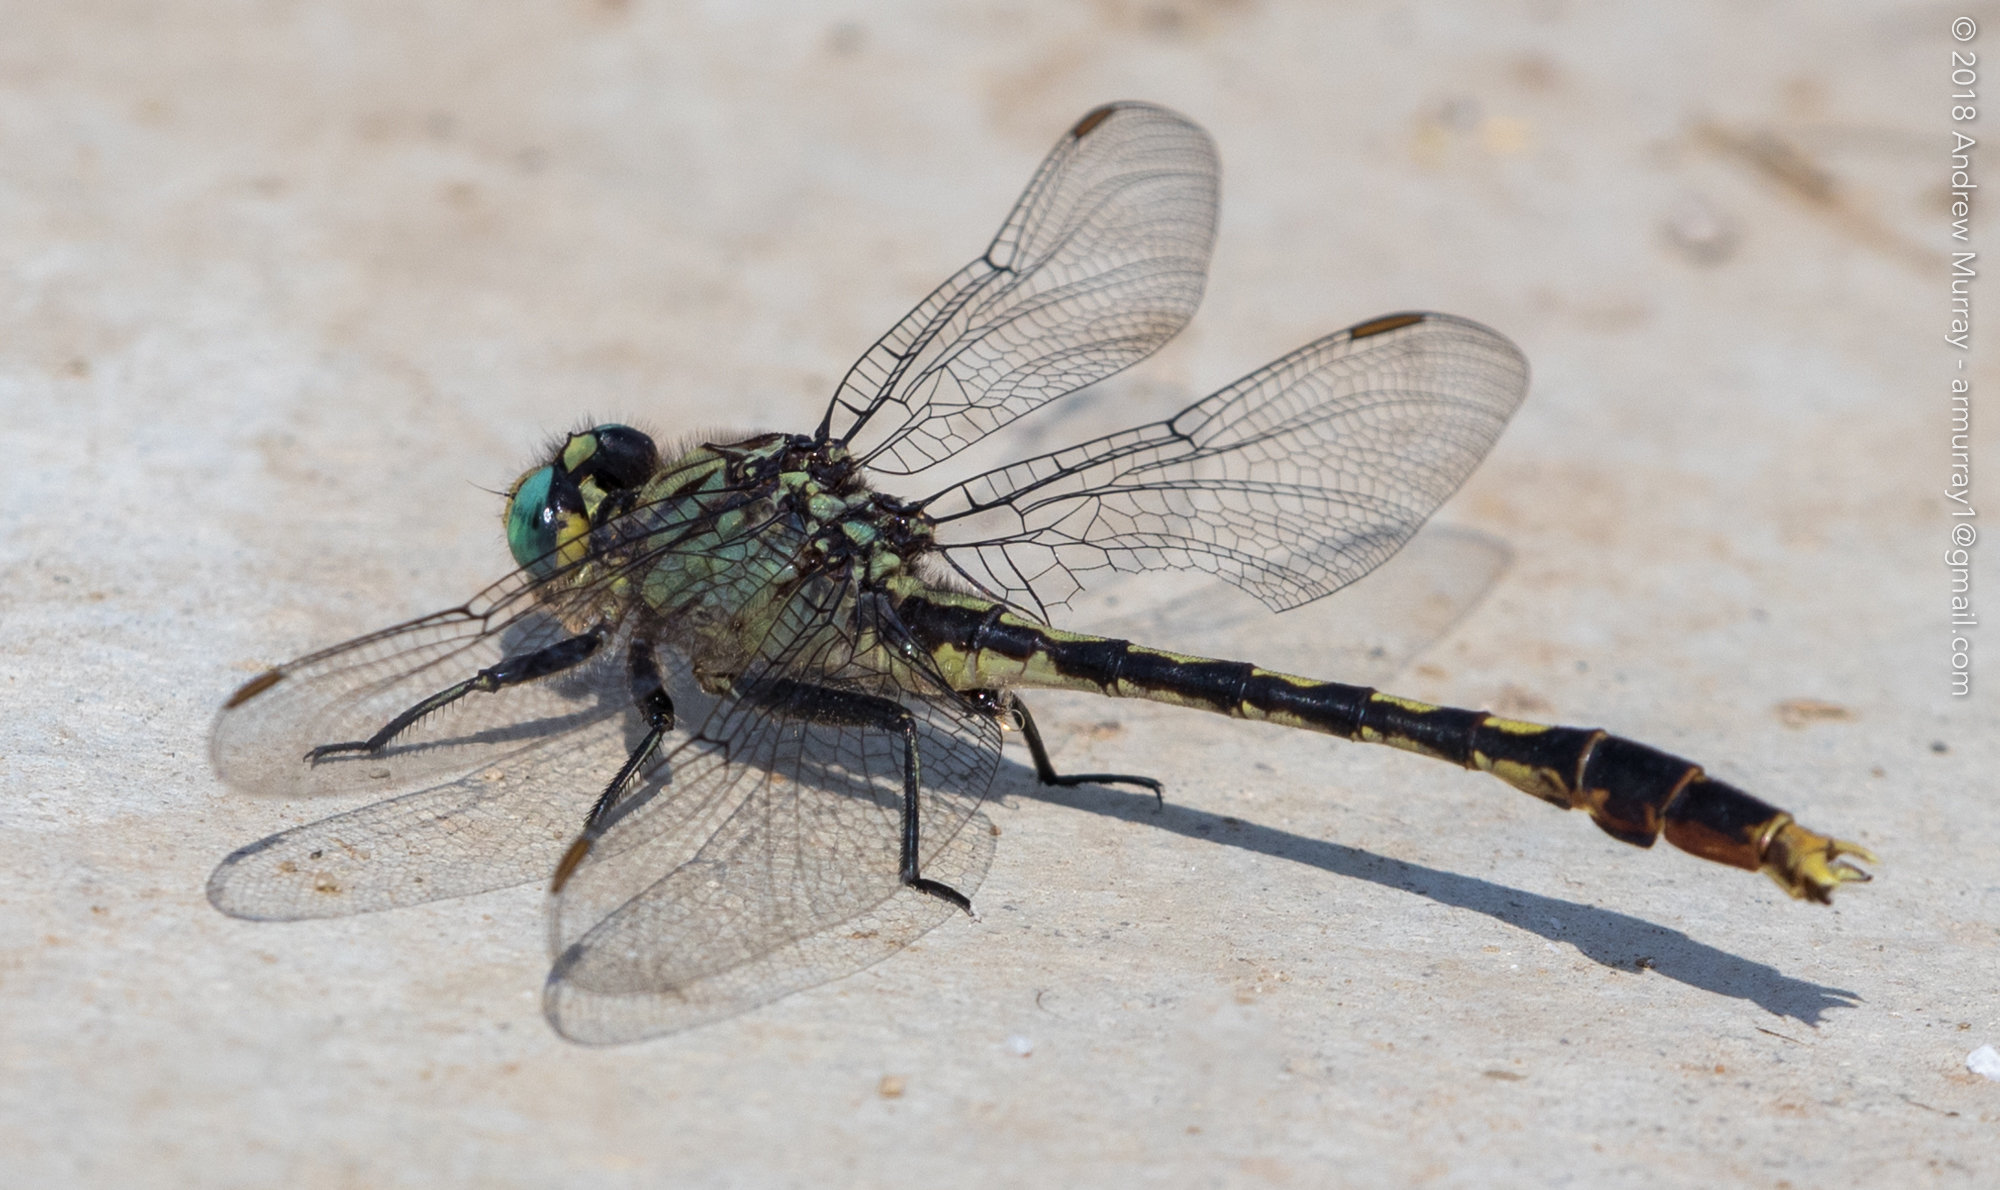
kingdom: Animalia
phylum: Arthropoda
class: Insecta
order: Odonata
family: Gomphidae
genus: Arigomphus
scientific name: Arigomphus villosipes
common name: Unicorn clubtail
